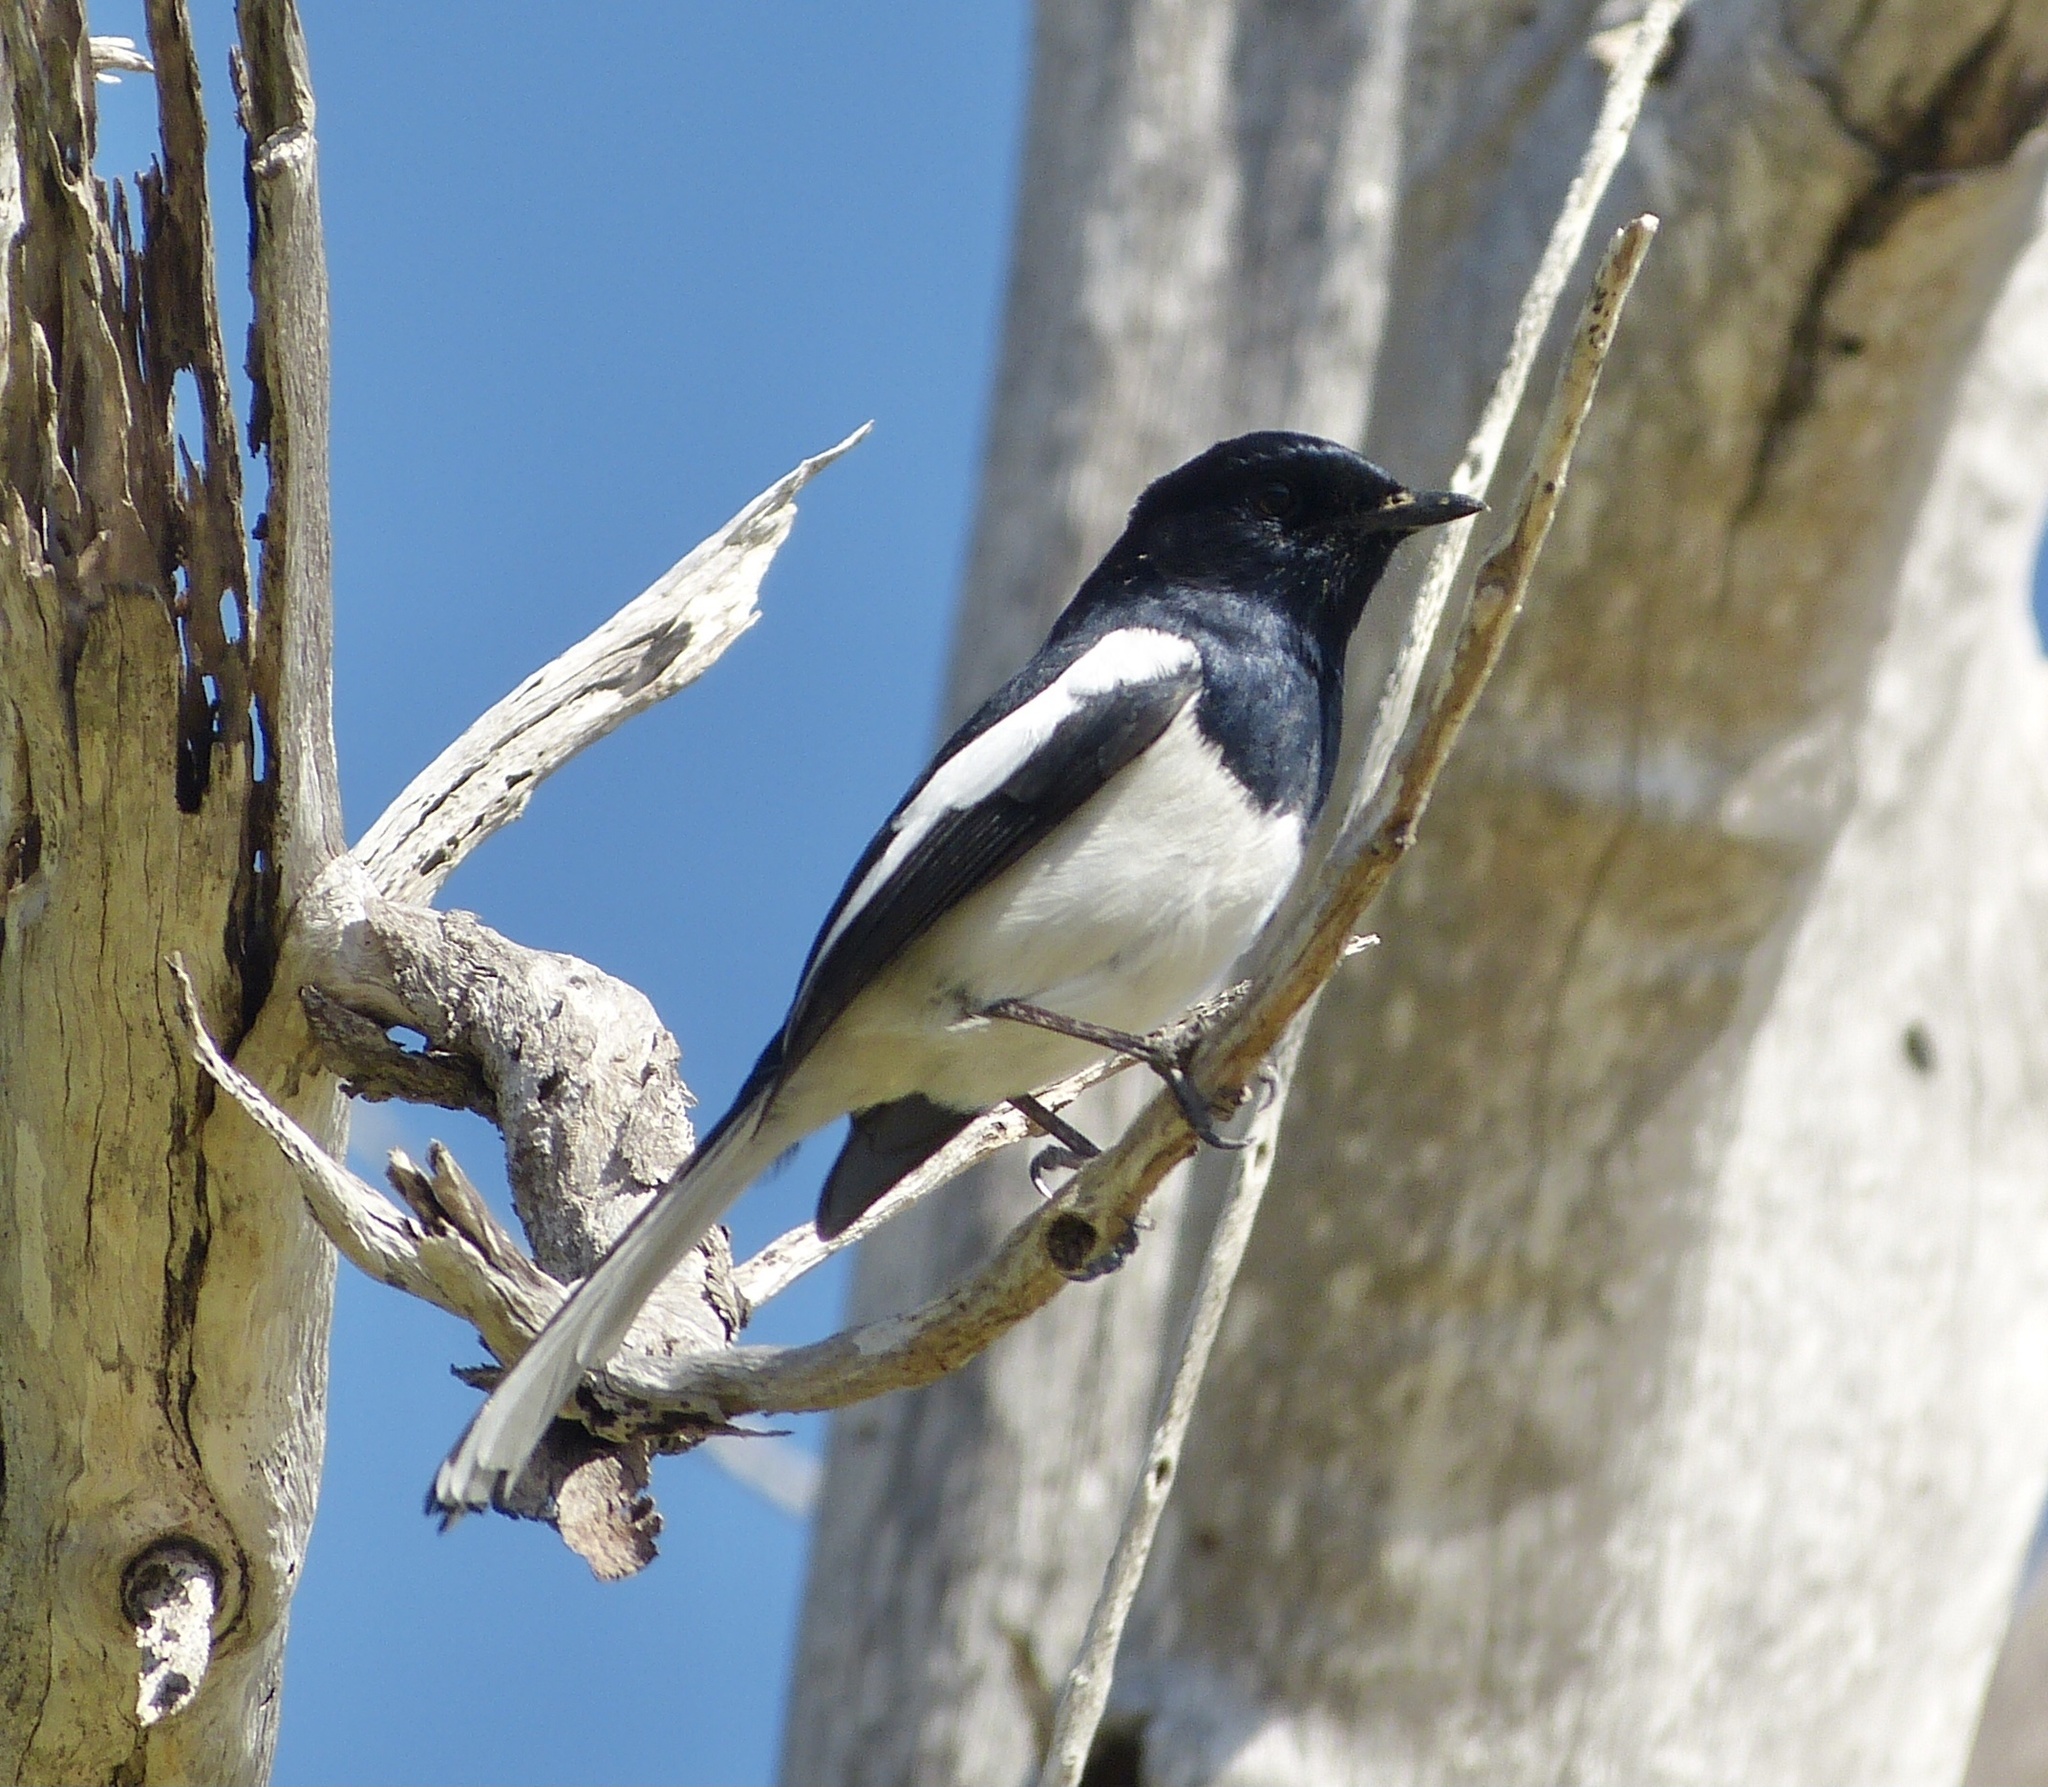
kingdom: Animalia
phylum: Chordata
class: Aves
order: Passeriformes
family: Muscicapidae
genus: Copsychus
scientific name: Copsychus albospecularis
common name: Madagascar magpie-robin
